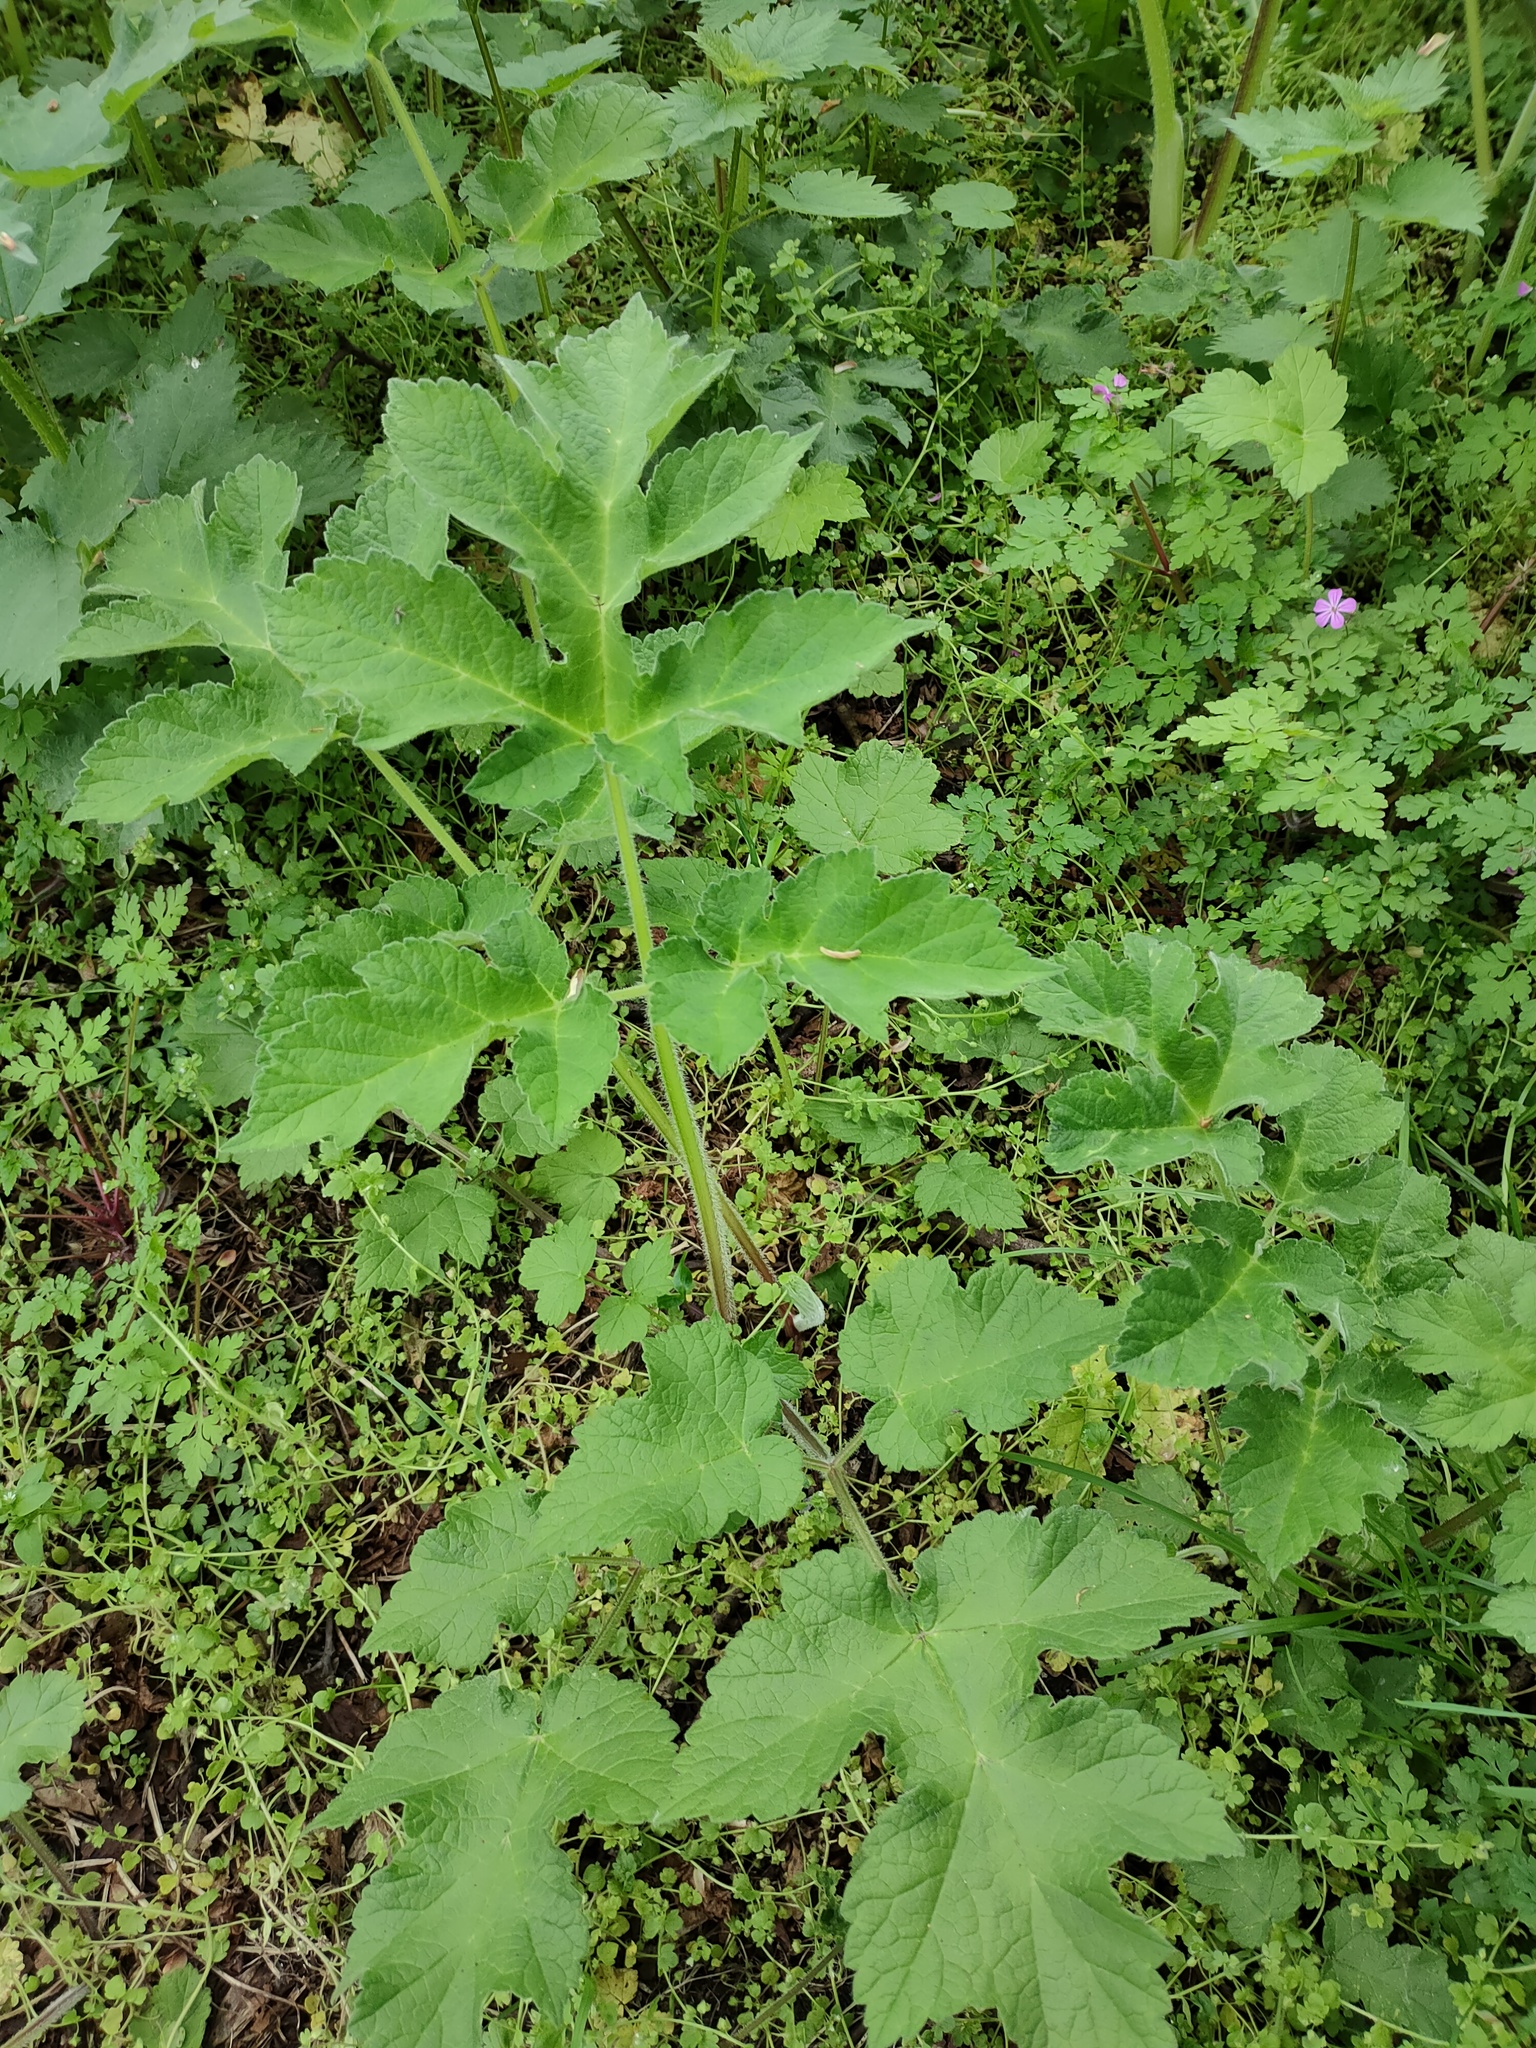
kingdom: Plantae
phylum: Tracheophyta
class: Magnoliopsida
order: Apiales
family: Apiaceae
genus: Heracleum
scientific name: Heracleum sphondylium
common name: Hogweed
